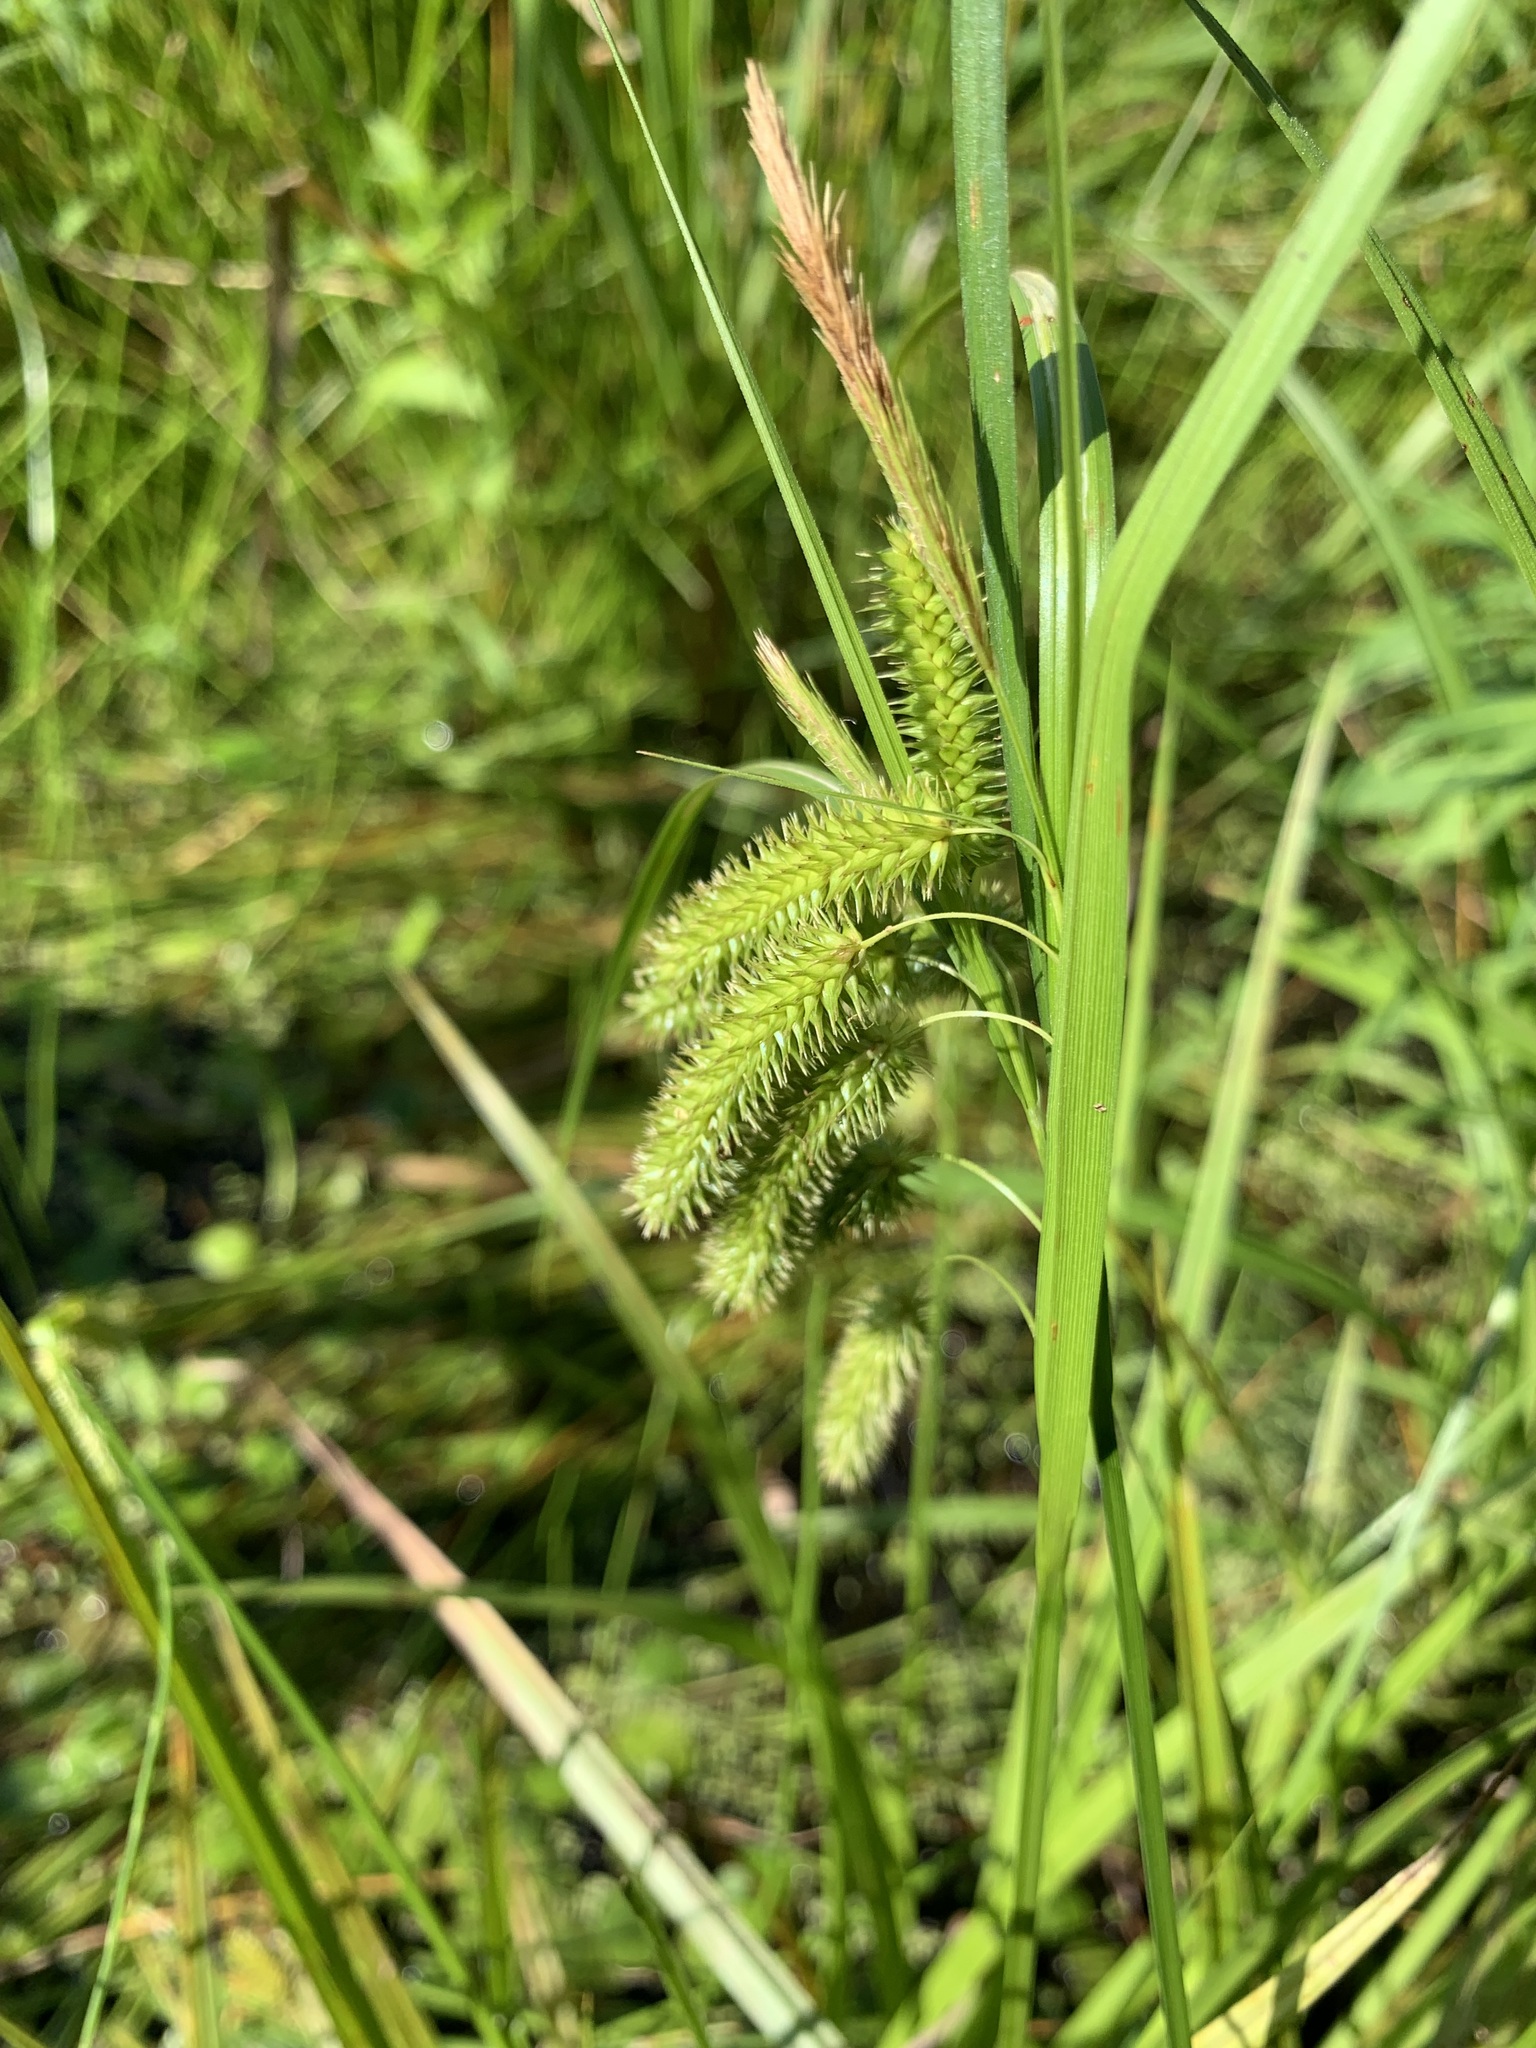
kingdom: Plantae
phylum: Tracheophyta
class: Liliopsida
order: Poales
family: Cyperaceae
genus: Carex
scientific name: Carex pseudocyperus
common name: Cyperus sedge
